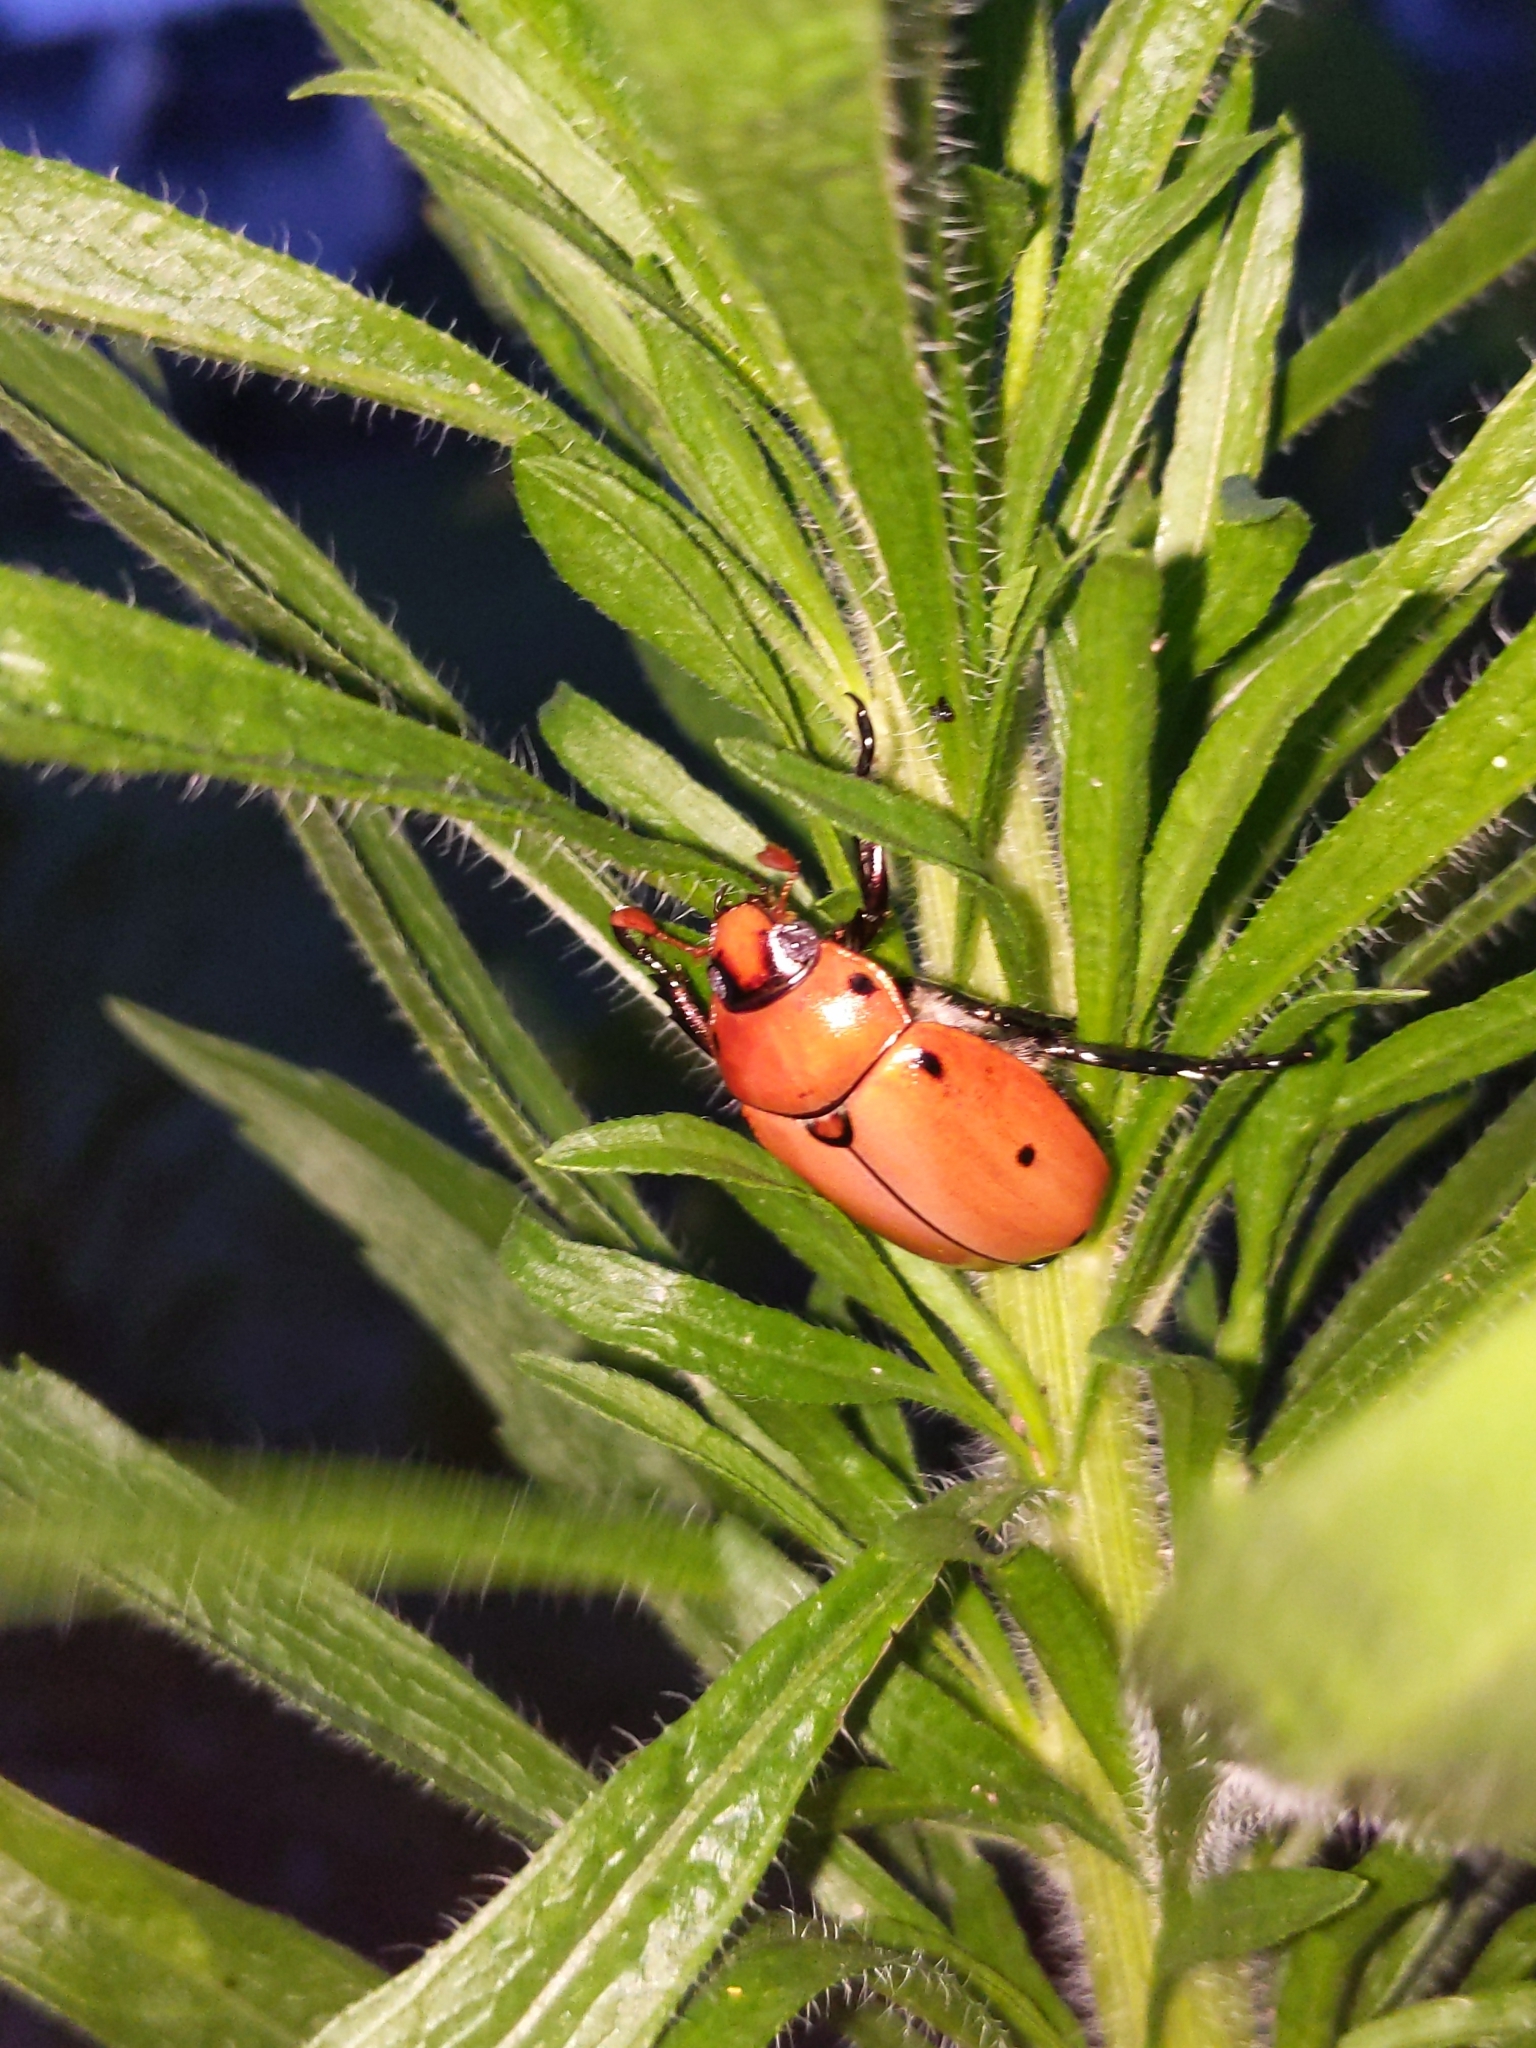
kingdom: Animalia
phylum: Arthropoda
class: Insecta
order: Coleoptera
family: Scarabaeidae
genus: Pelidnota
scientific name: Pelidnota punctata
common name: Grapevine beetle
